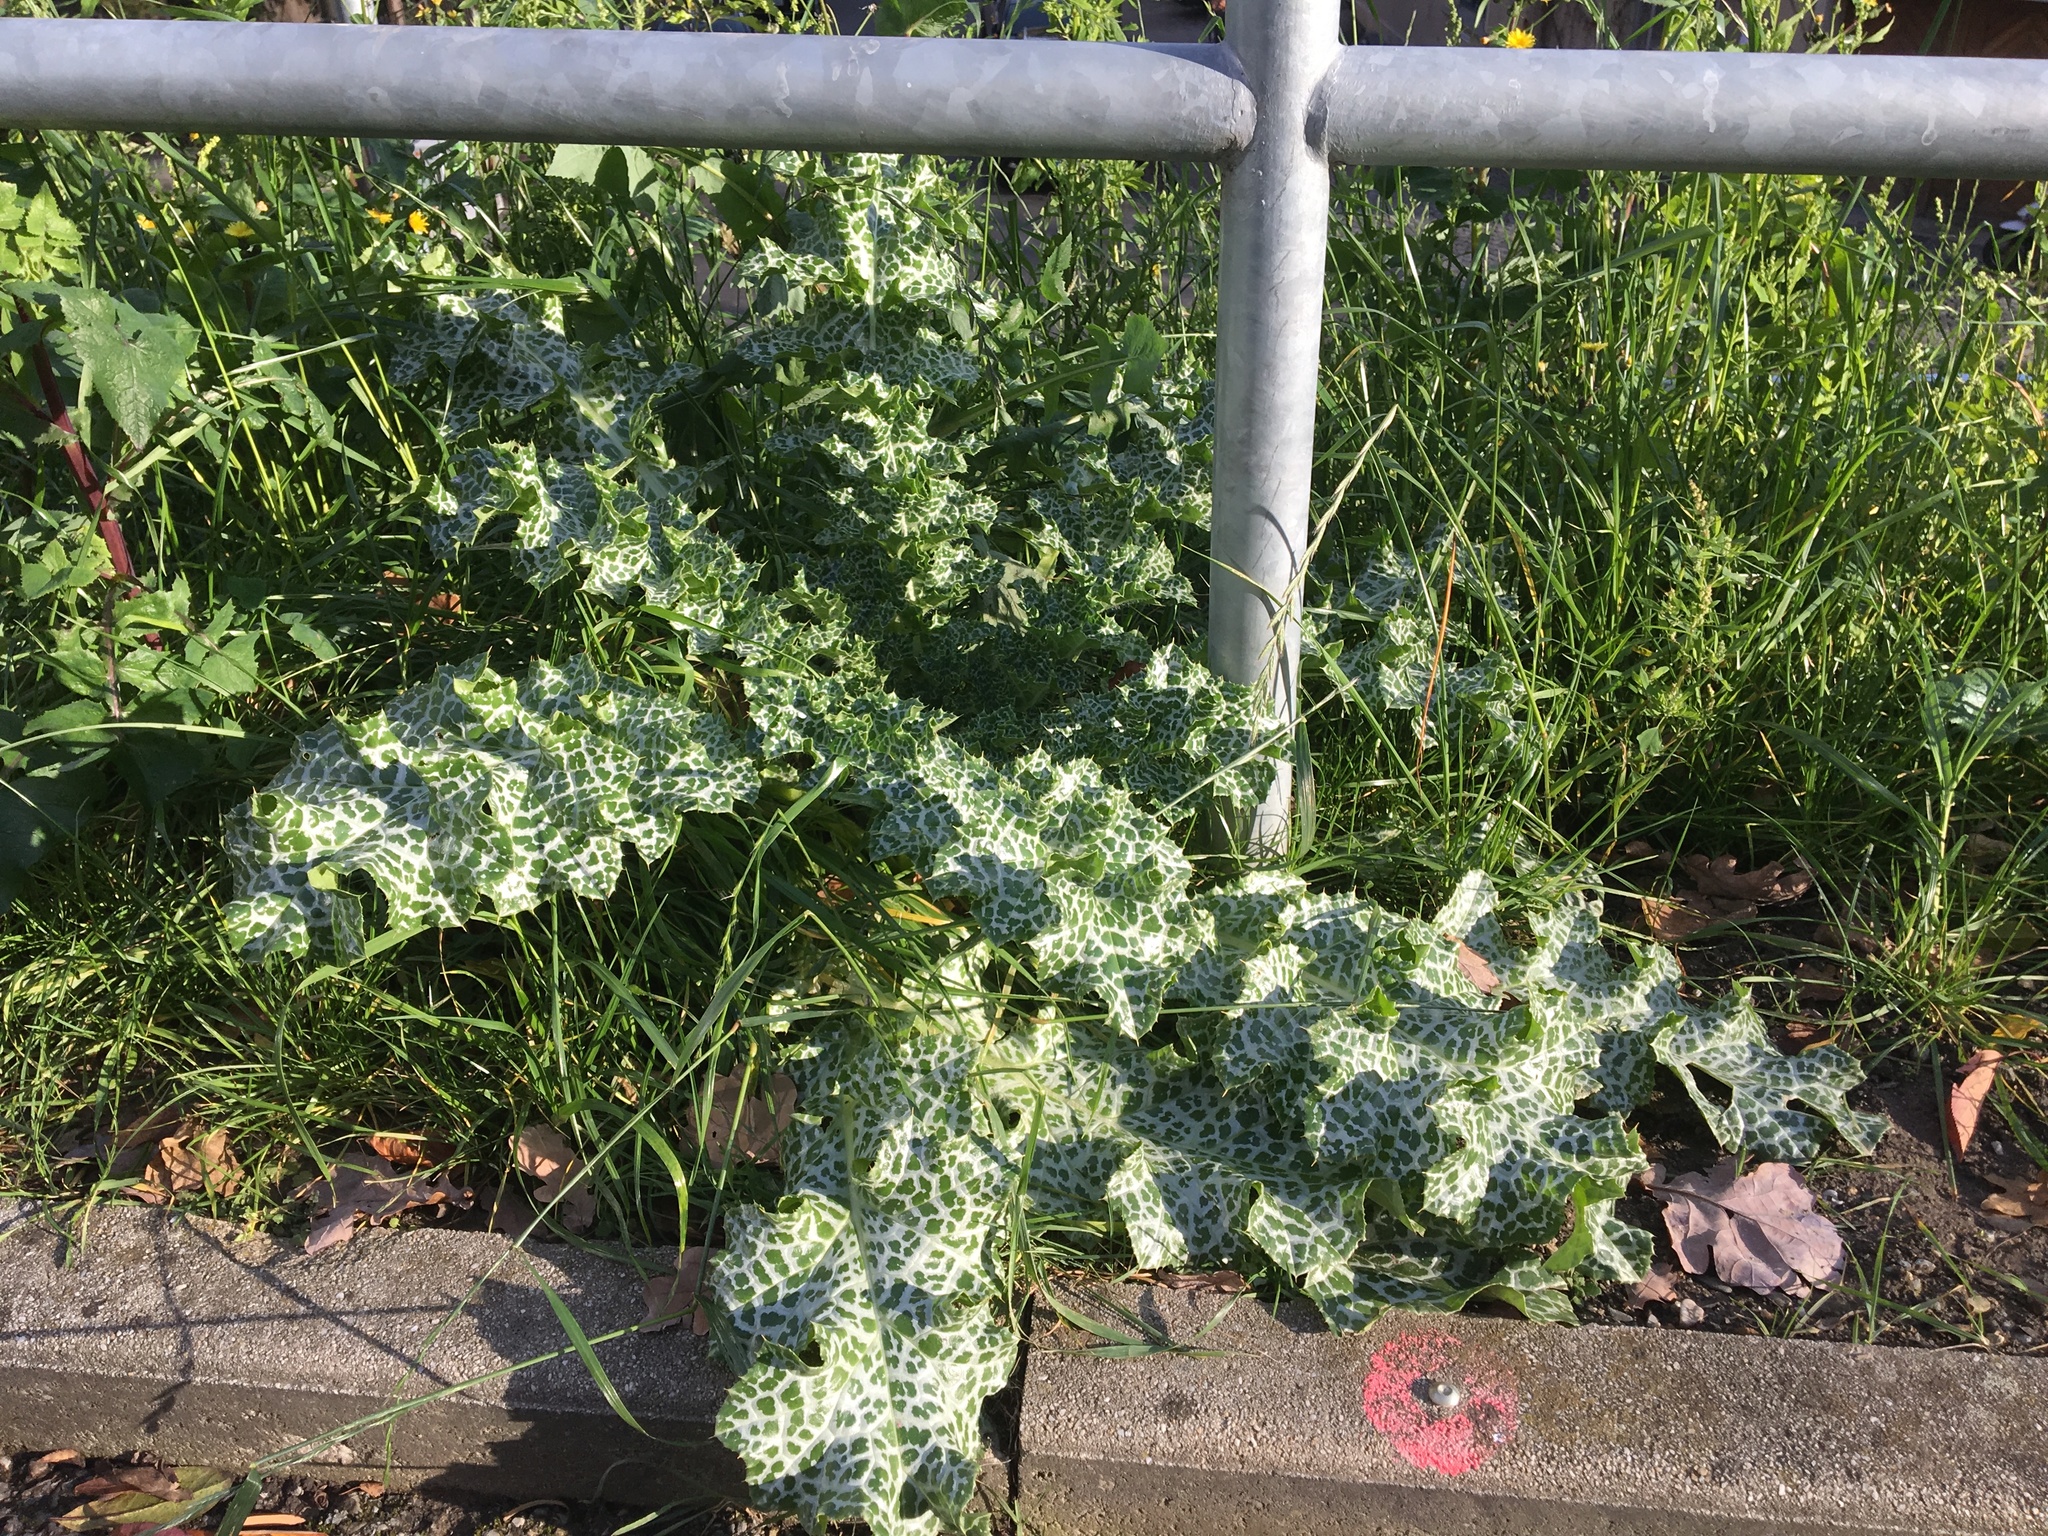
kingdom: Plantae
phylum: Tracheophyta
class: Magnoliopsida
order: Asterales
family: Asteraceae
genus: Silybum
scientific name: Silybum marianum
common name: Milk thistle
